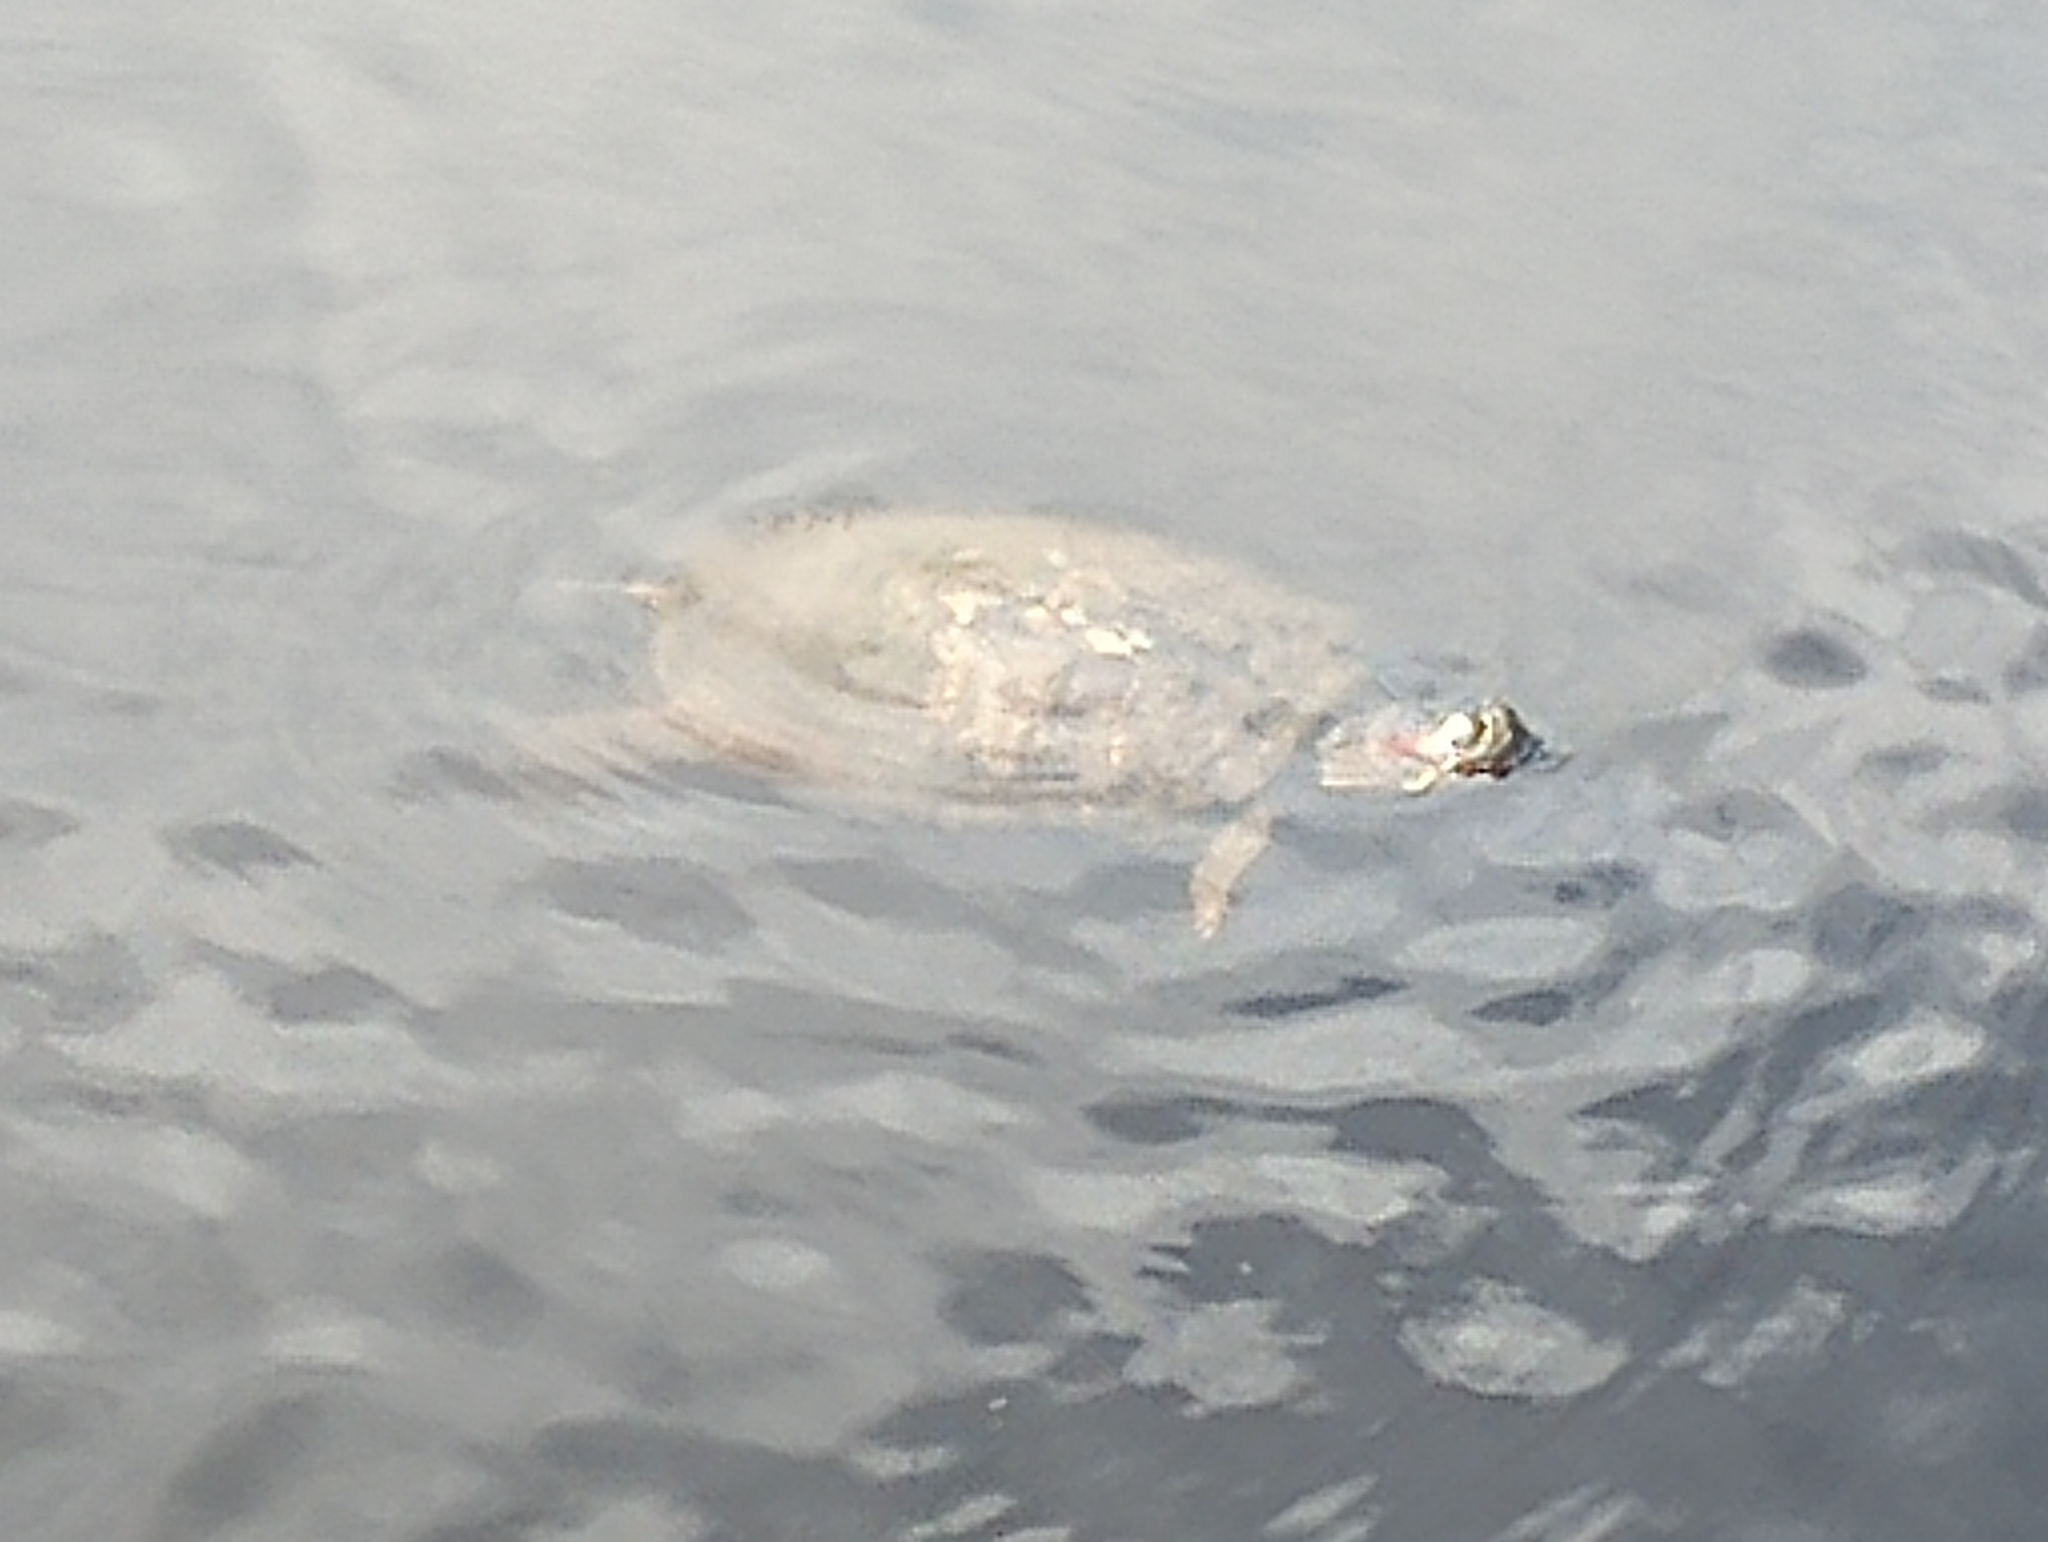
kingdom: Animalia
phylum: Chordata
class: Testudines
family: Emydidae
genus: Trachemys
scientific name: Trachemys scripta
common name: Slider
